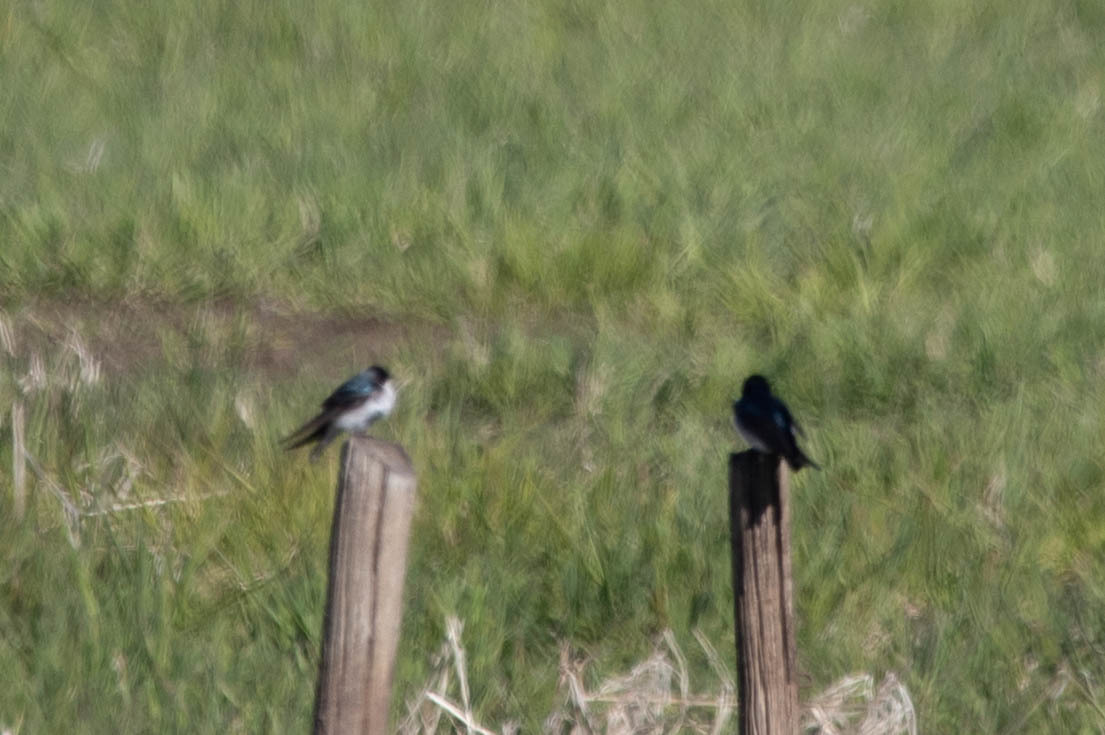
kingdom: Animalia
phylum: Chordata
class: Aves
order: Passeriformes
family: Hirundinidae
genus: Tachycineta
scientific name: Tachycineta bicolor
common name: Tree swallow
